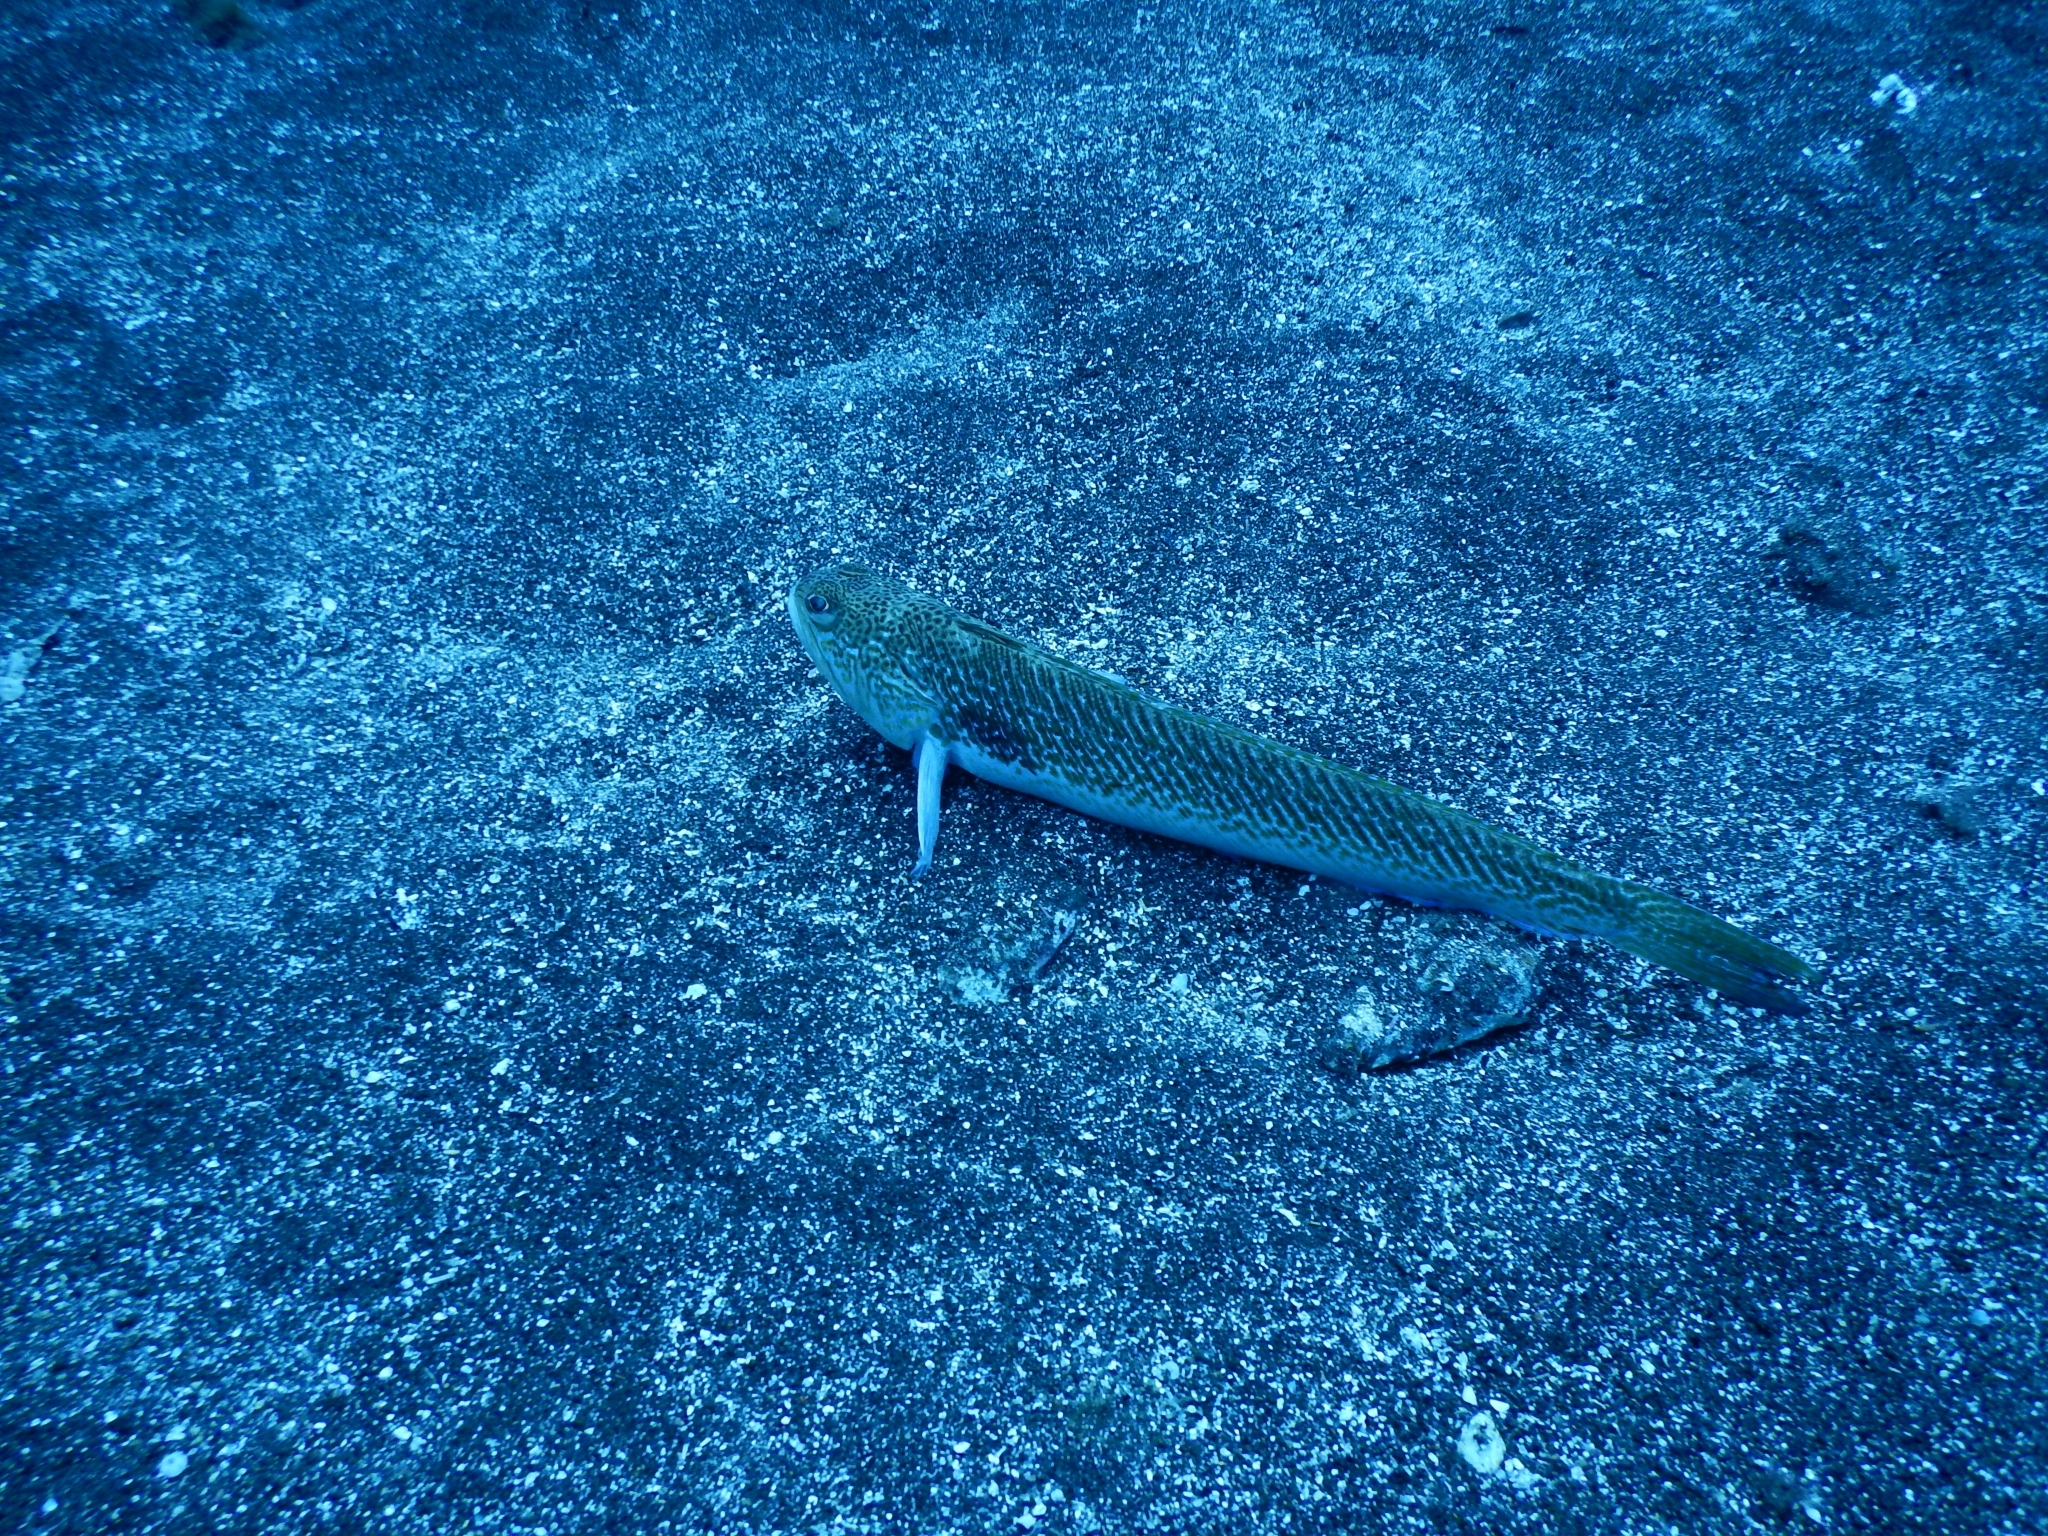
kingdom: Animalia
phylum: Chordata
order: Perciformes
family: Trachinidae
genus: Trachinus
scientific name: Trachinus draco
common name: Greater weever
